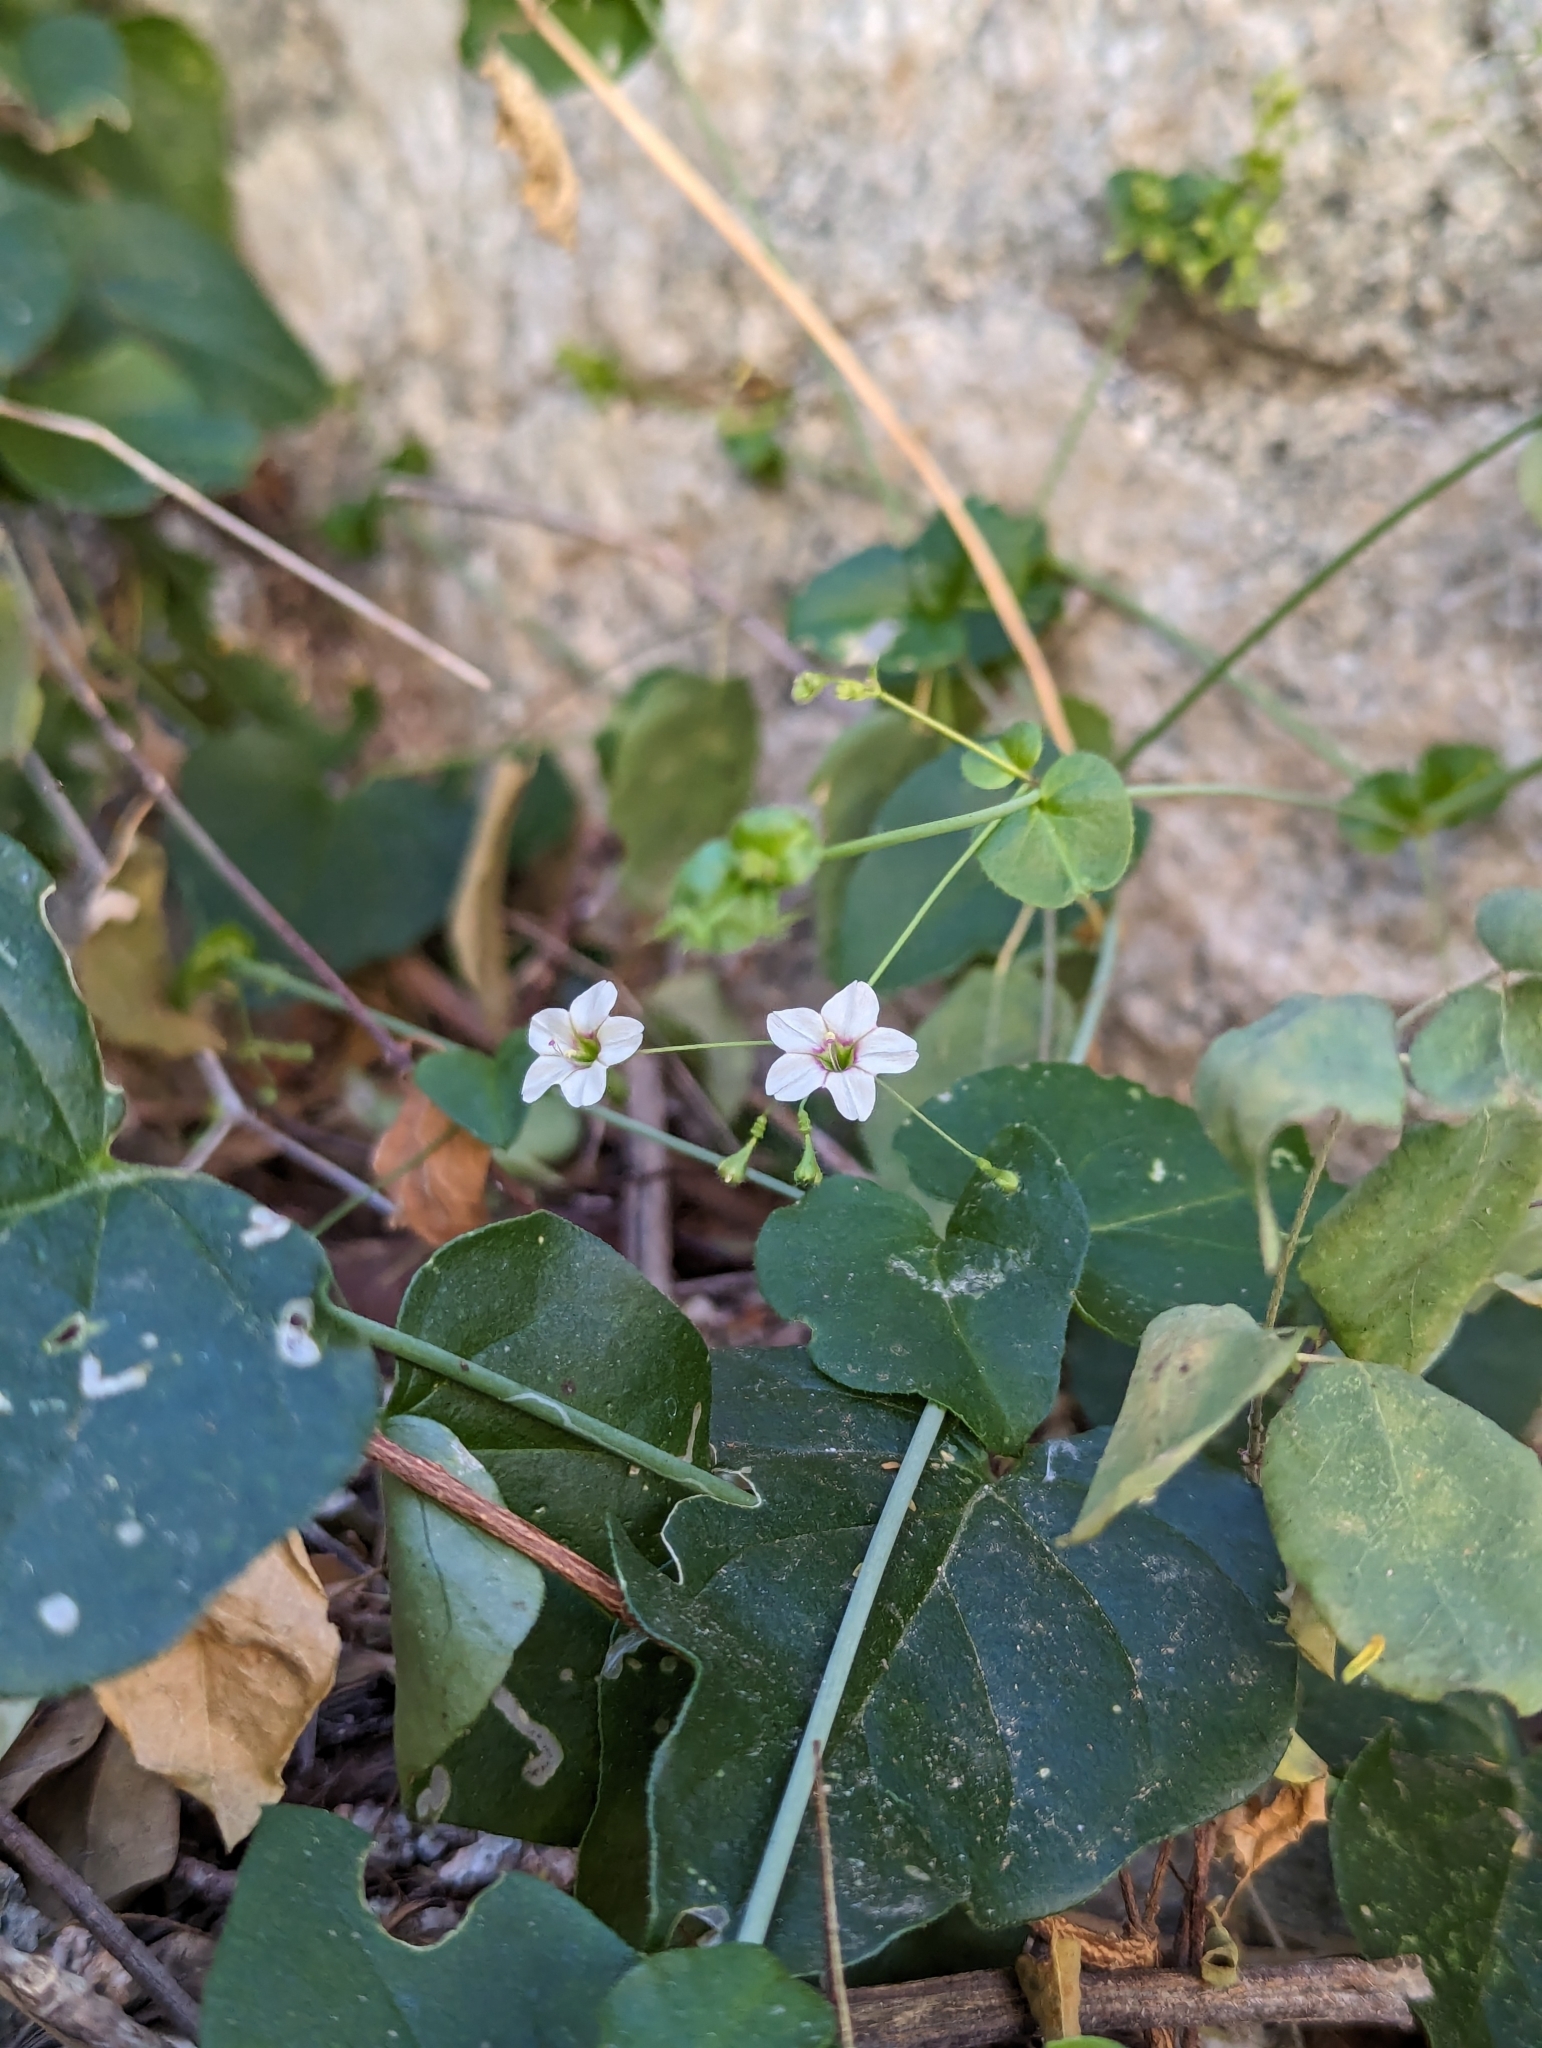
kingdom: Plantae
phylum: Tracheophyta
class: Magnoliopsida
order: Caryophyllales
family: Nyctaginaceae
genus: Commicarpus
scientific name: Commicarpus brandegeei
